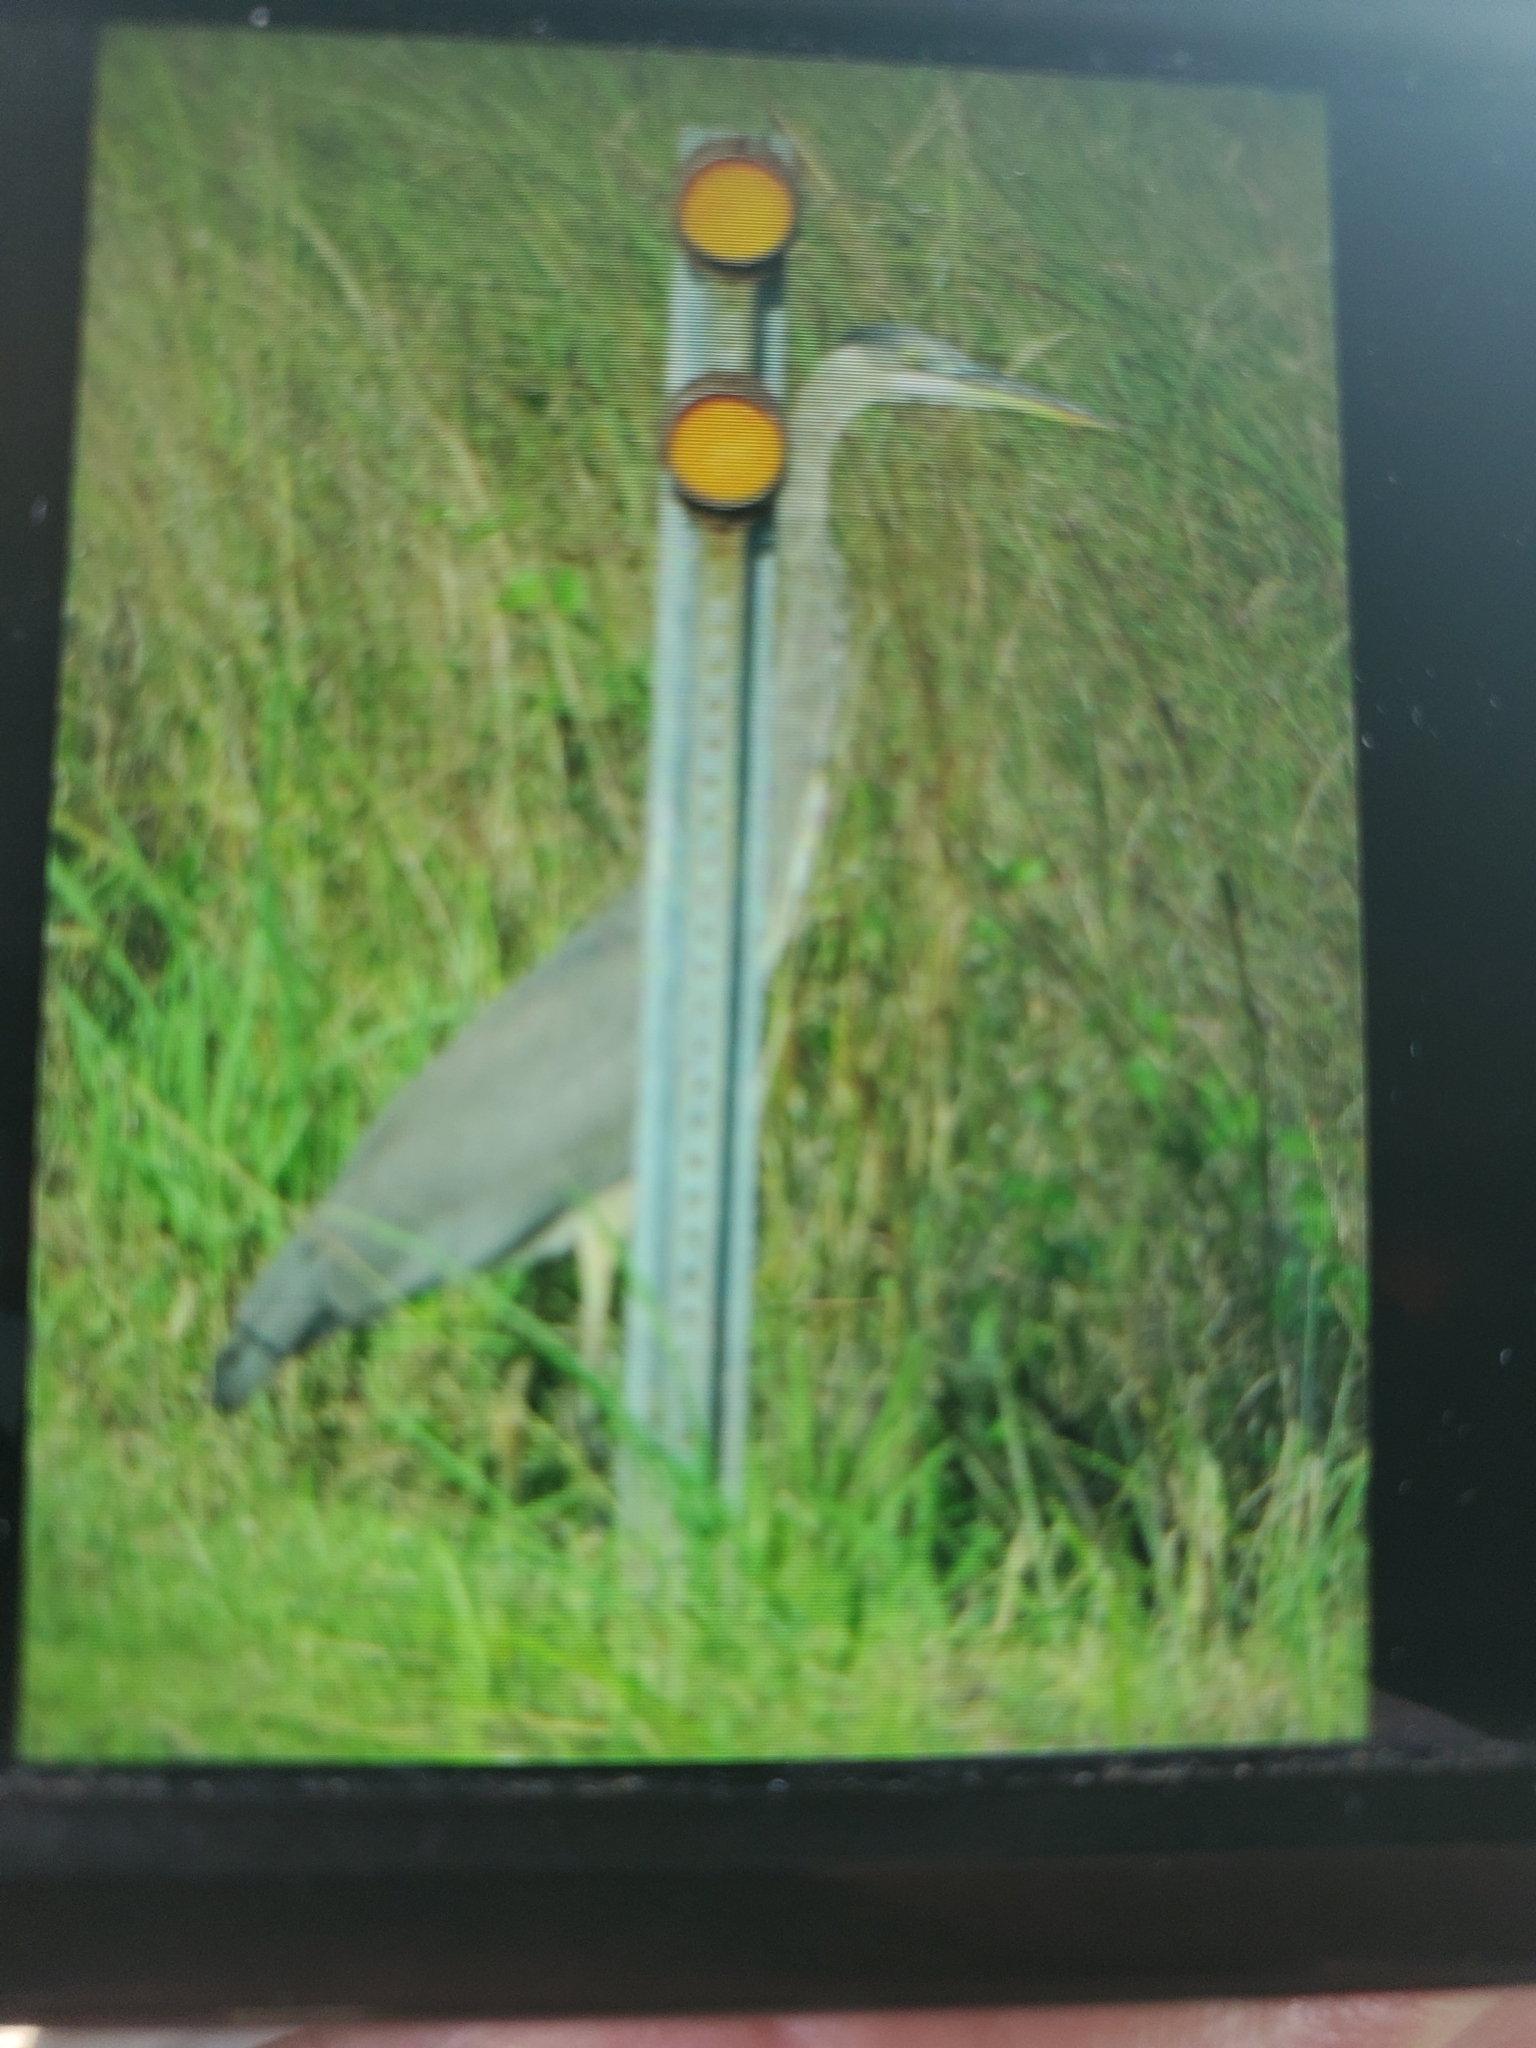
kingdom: Animalia
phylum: Chordata
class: Aves
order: Pelecaniformes
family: Ardeidae
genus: Ardea
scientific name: Ardea herodias
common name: Great blue heron
